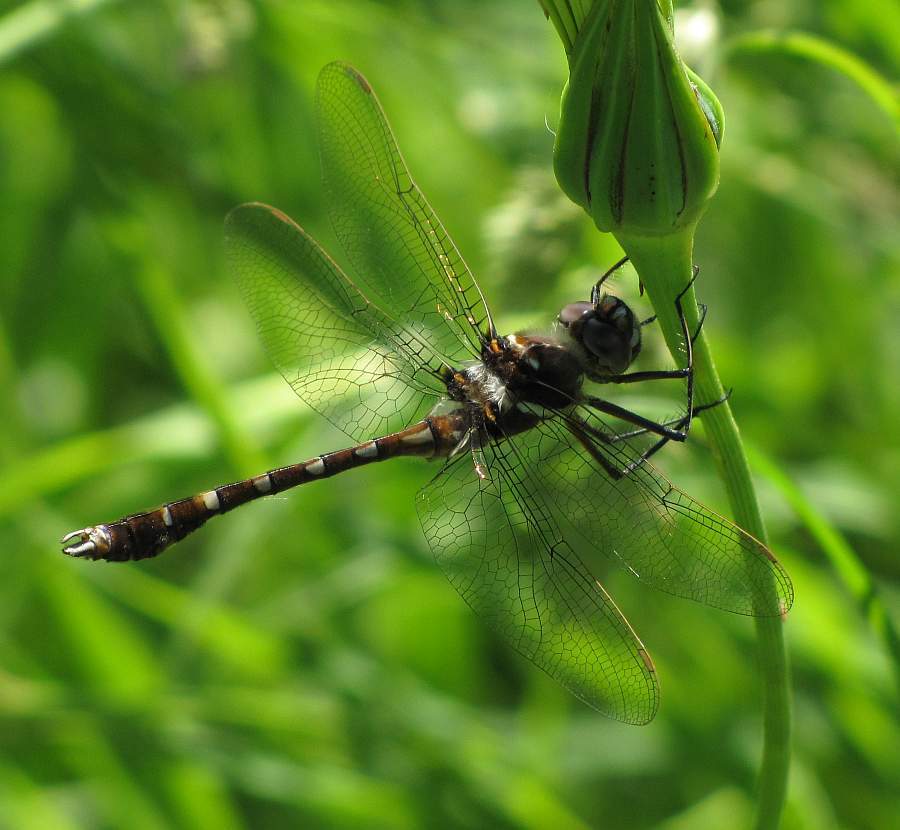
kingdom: Animalia
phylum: Arthropoda
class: Insecta
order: Odonata
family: Macromiidae
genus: Didymops
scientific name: Didymops transversa
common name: Stream cruiser
